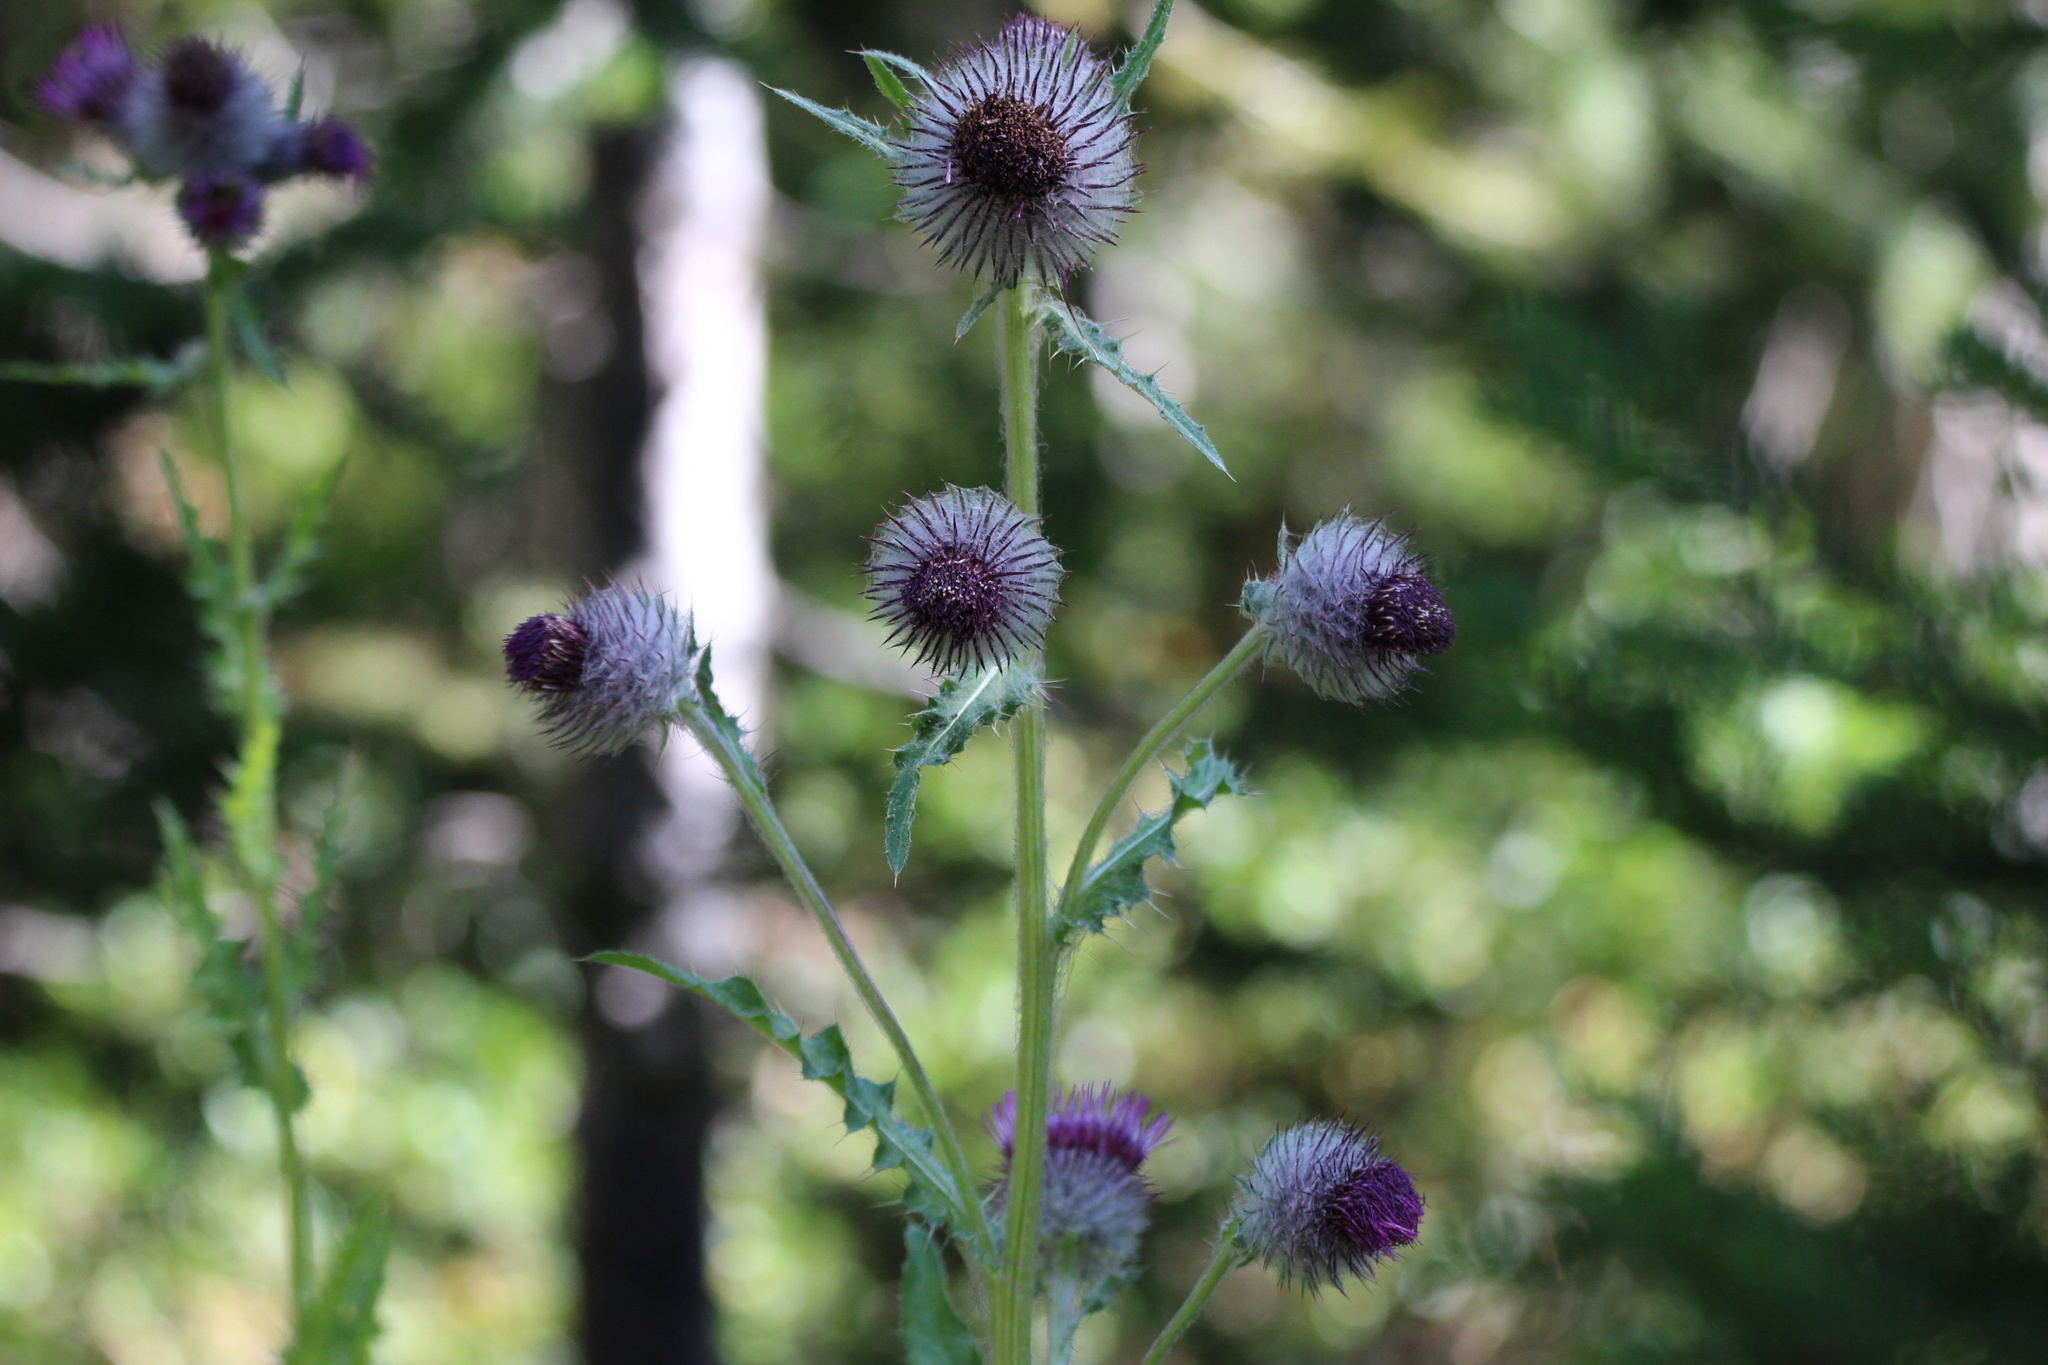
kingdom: Plantae
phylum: Tracheophyta
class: Magnoliopsida
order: Asterales
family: Asteraceae
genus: Cirsium
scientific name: Cirsium edule
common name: Indian thistle
